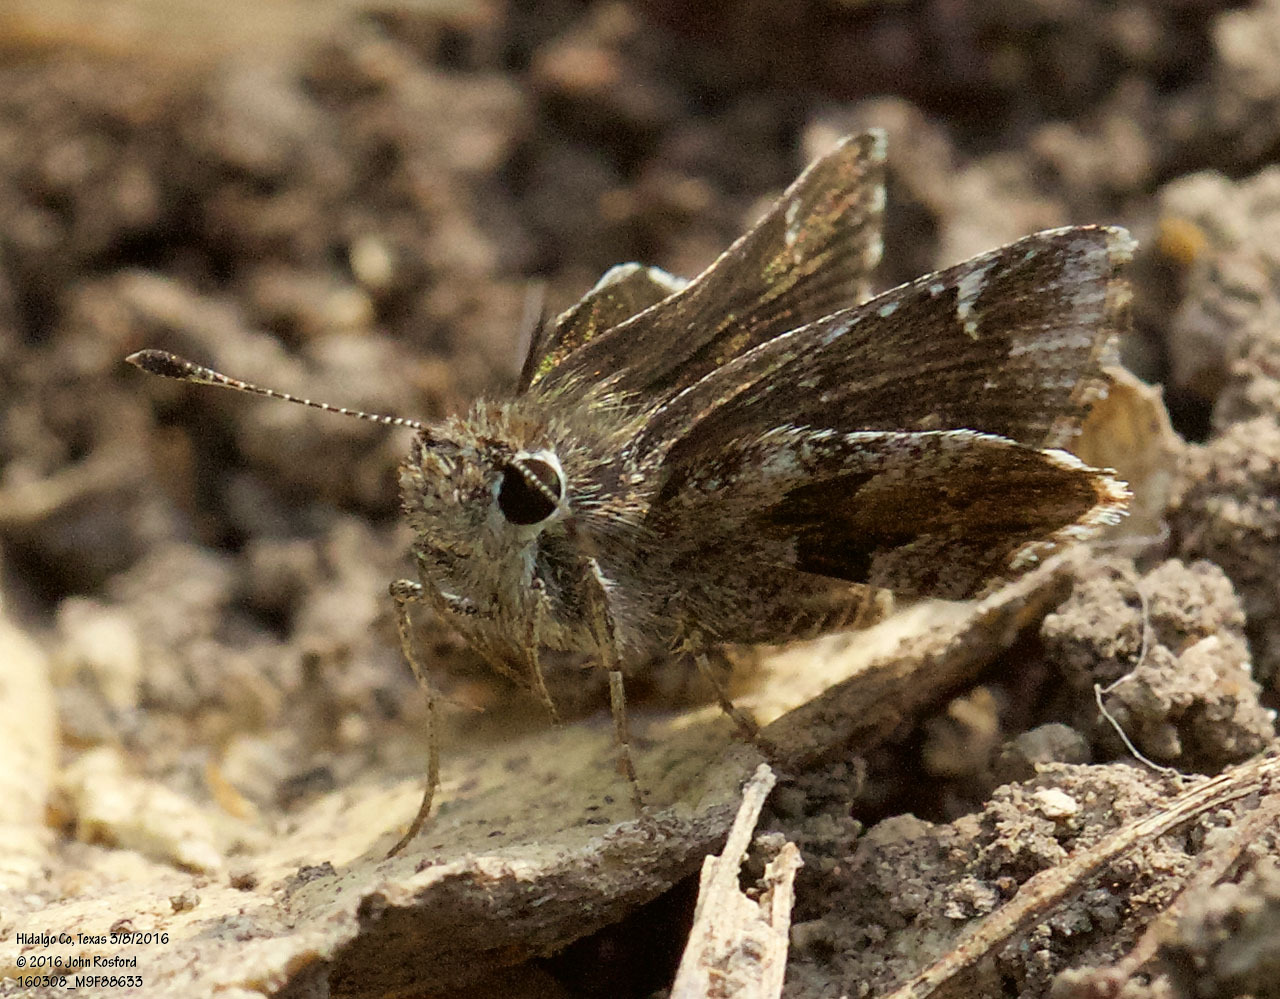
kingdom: Animalia
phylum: Arthropoda
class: Insecta
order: Lepidoptera
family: Hesperiidae
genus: Mastor
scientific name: Mastor nysa
